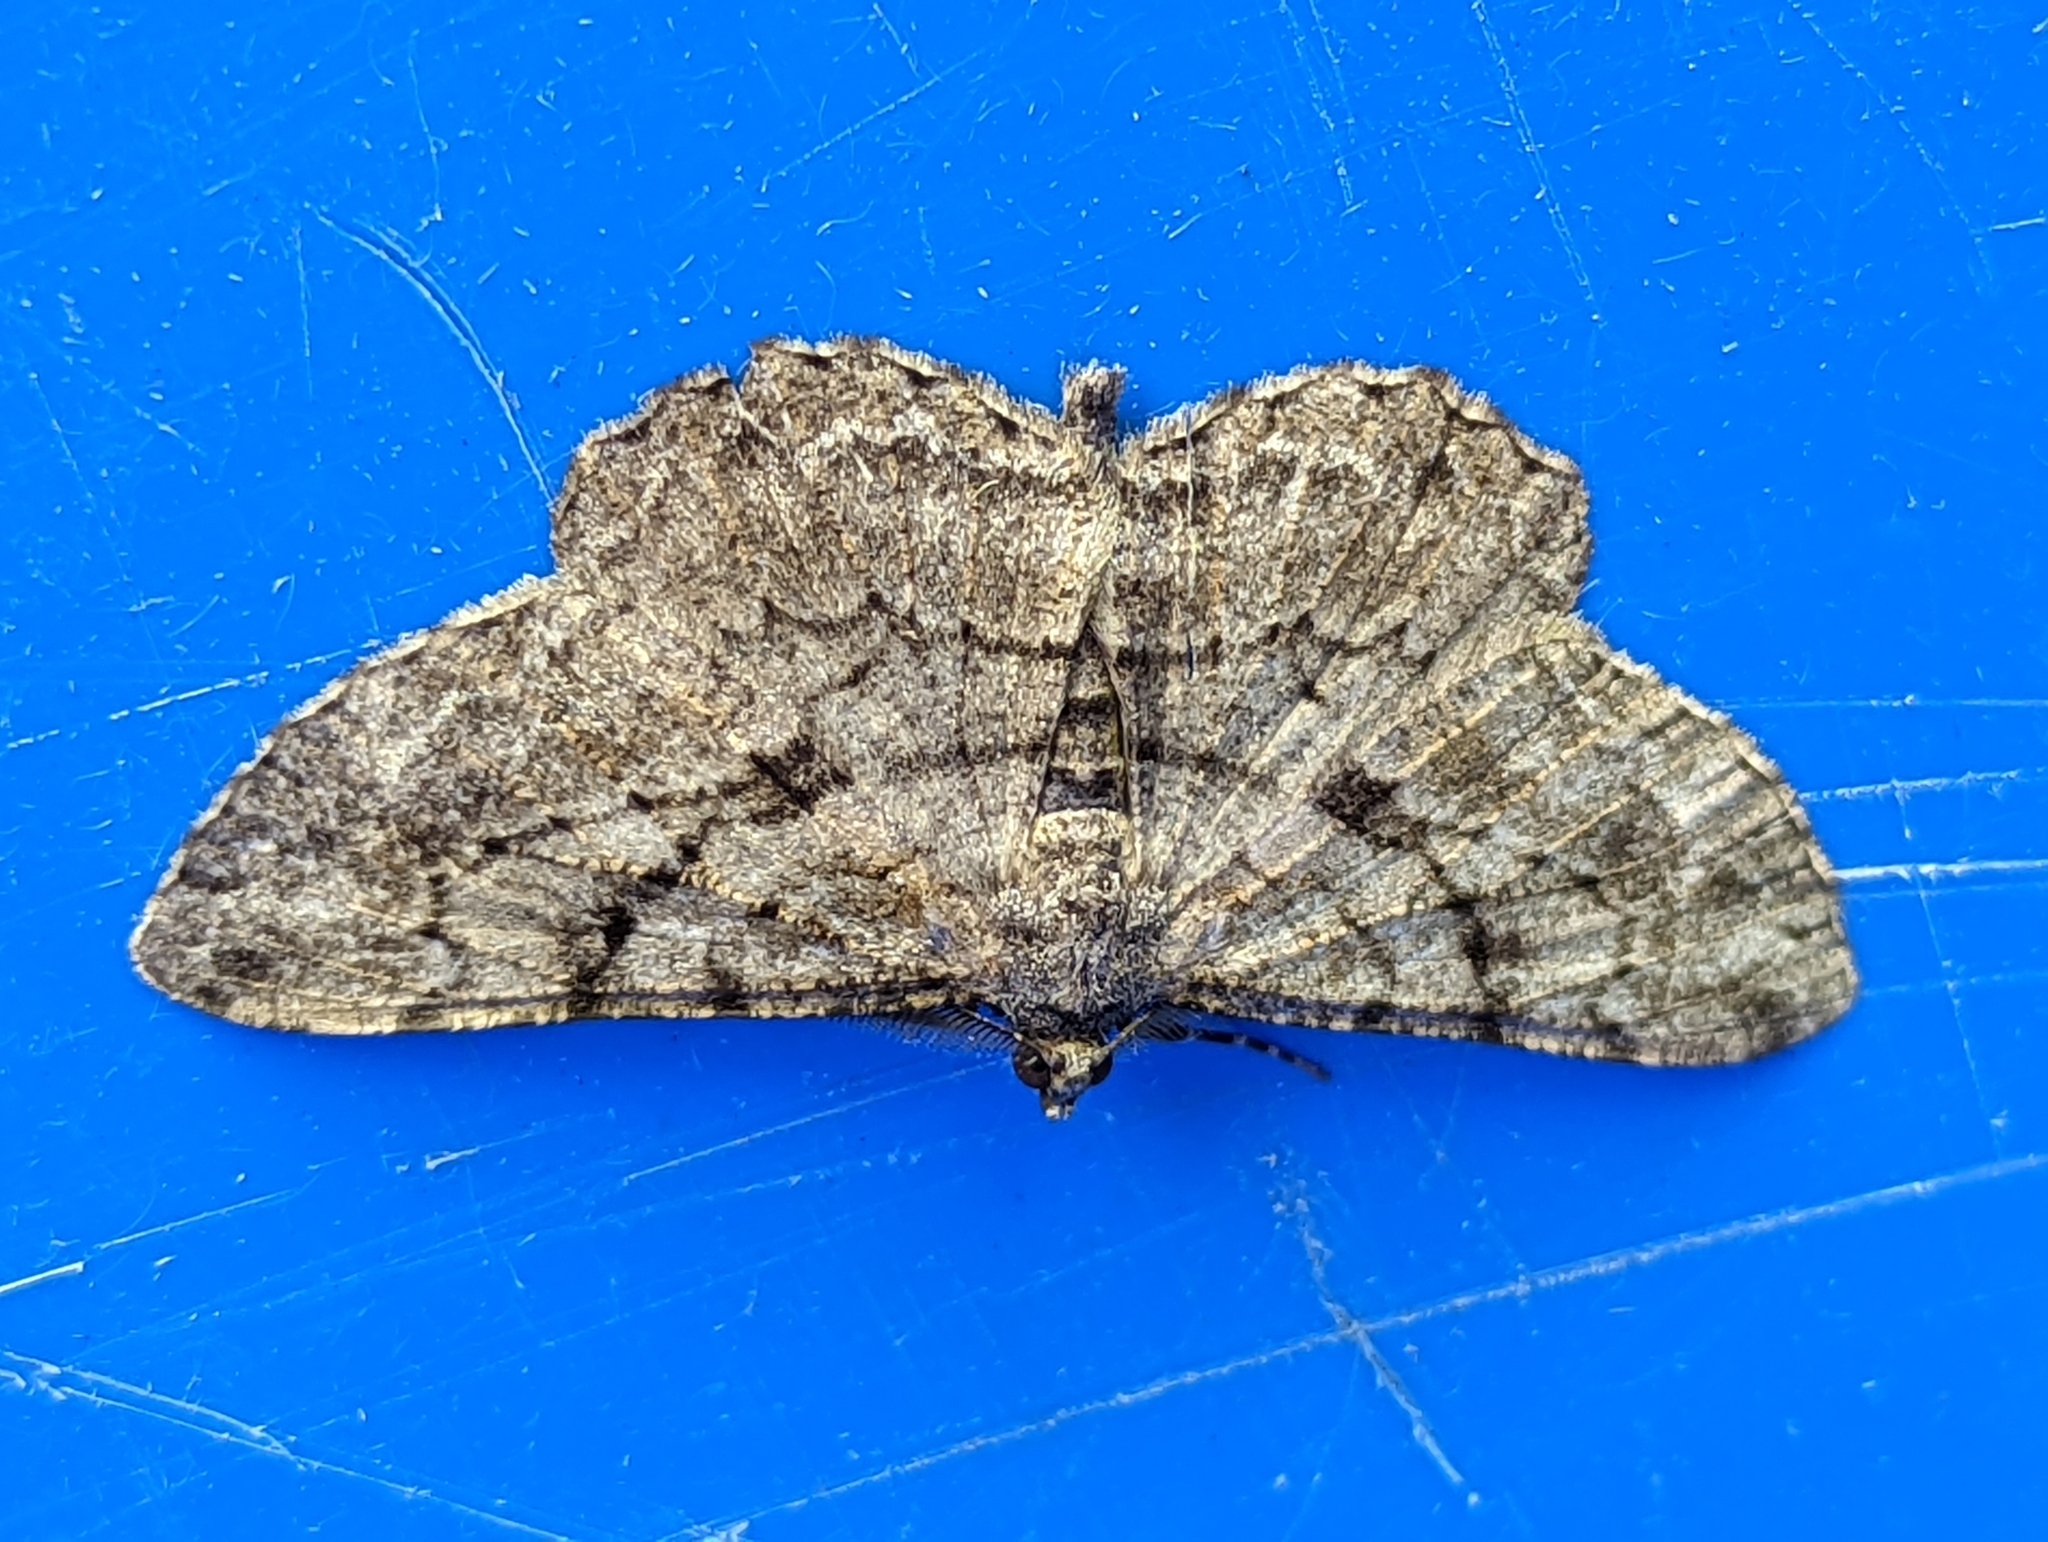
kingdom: Animalia
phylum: Arthropoda
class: Insecta
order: Lepidoptera
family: Geometridae
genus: Peribatodes
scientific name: Peribatodes rhomboidaria
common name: Willow beauty
